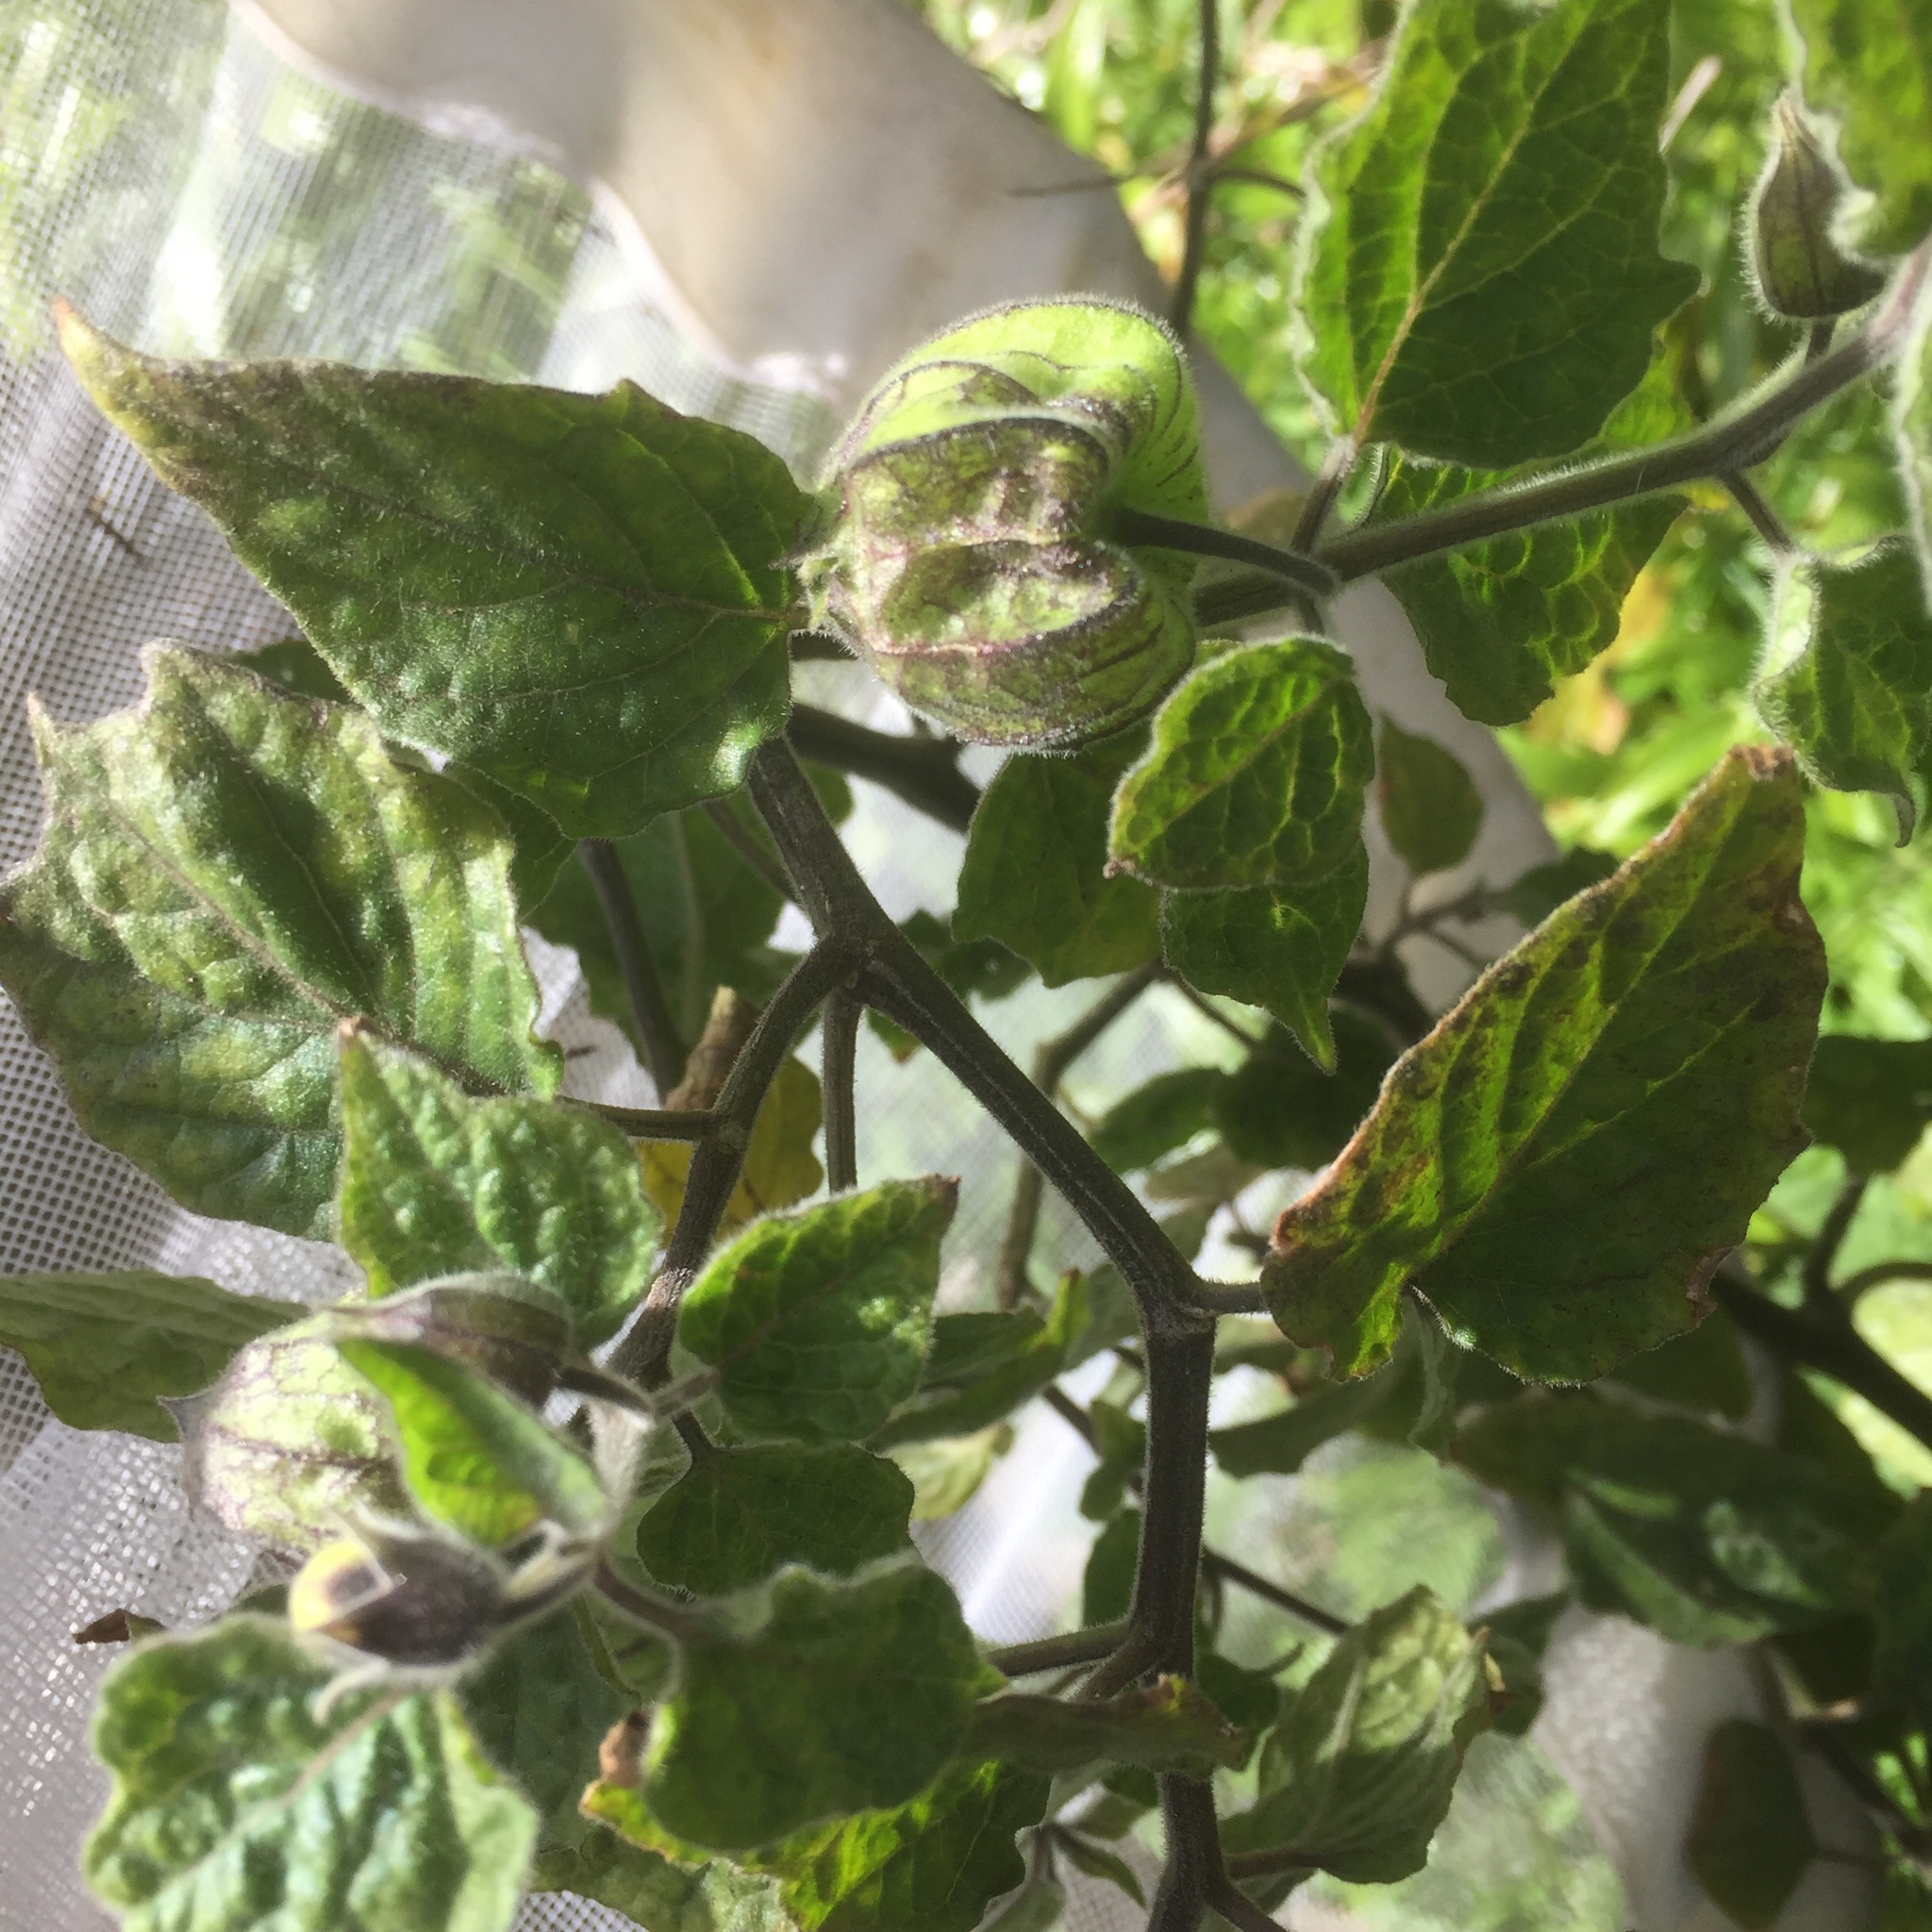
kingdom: Plantae
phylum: Tracheophyta
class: Magnoliopsida
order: Solanales
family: Solanaceae
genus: Physalis
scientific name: Physalis peruviana
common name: Cape-gooseberry
